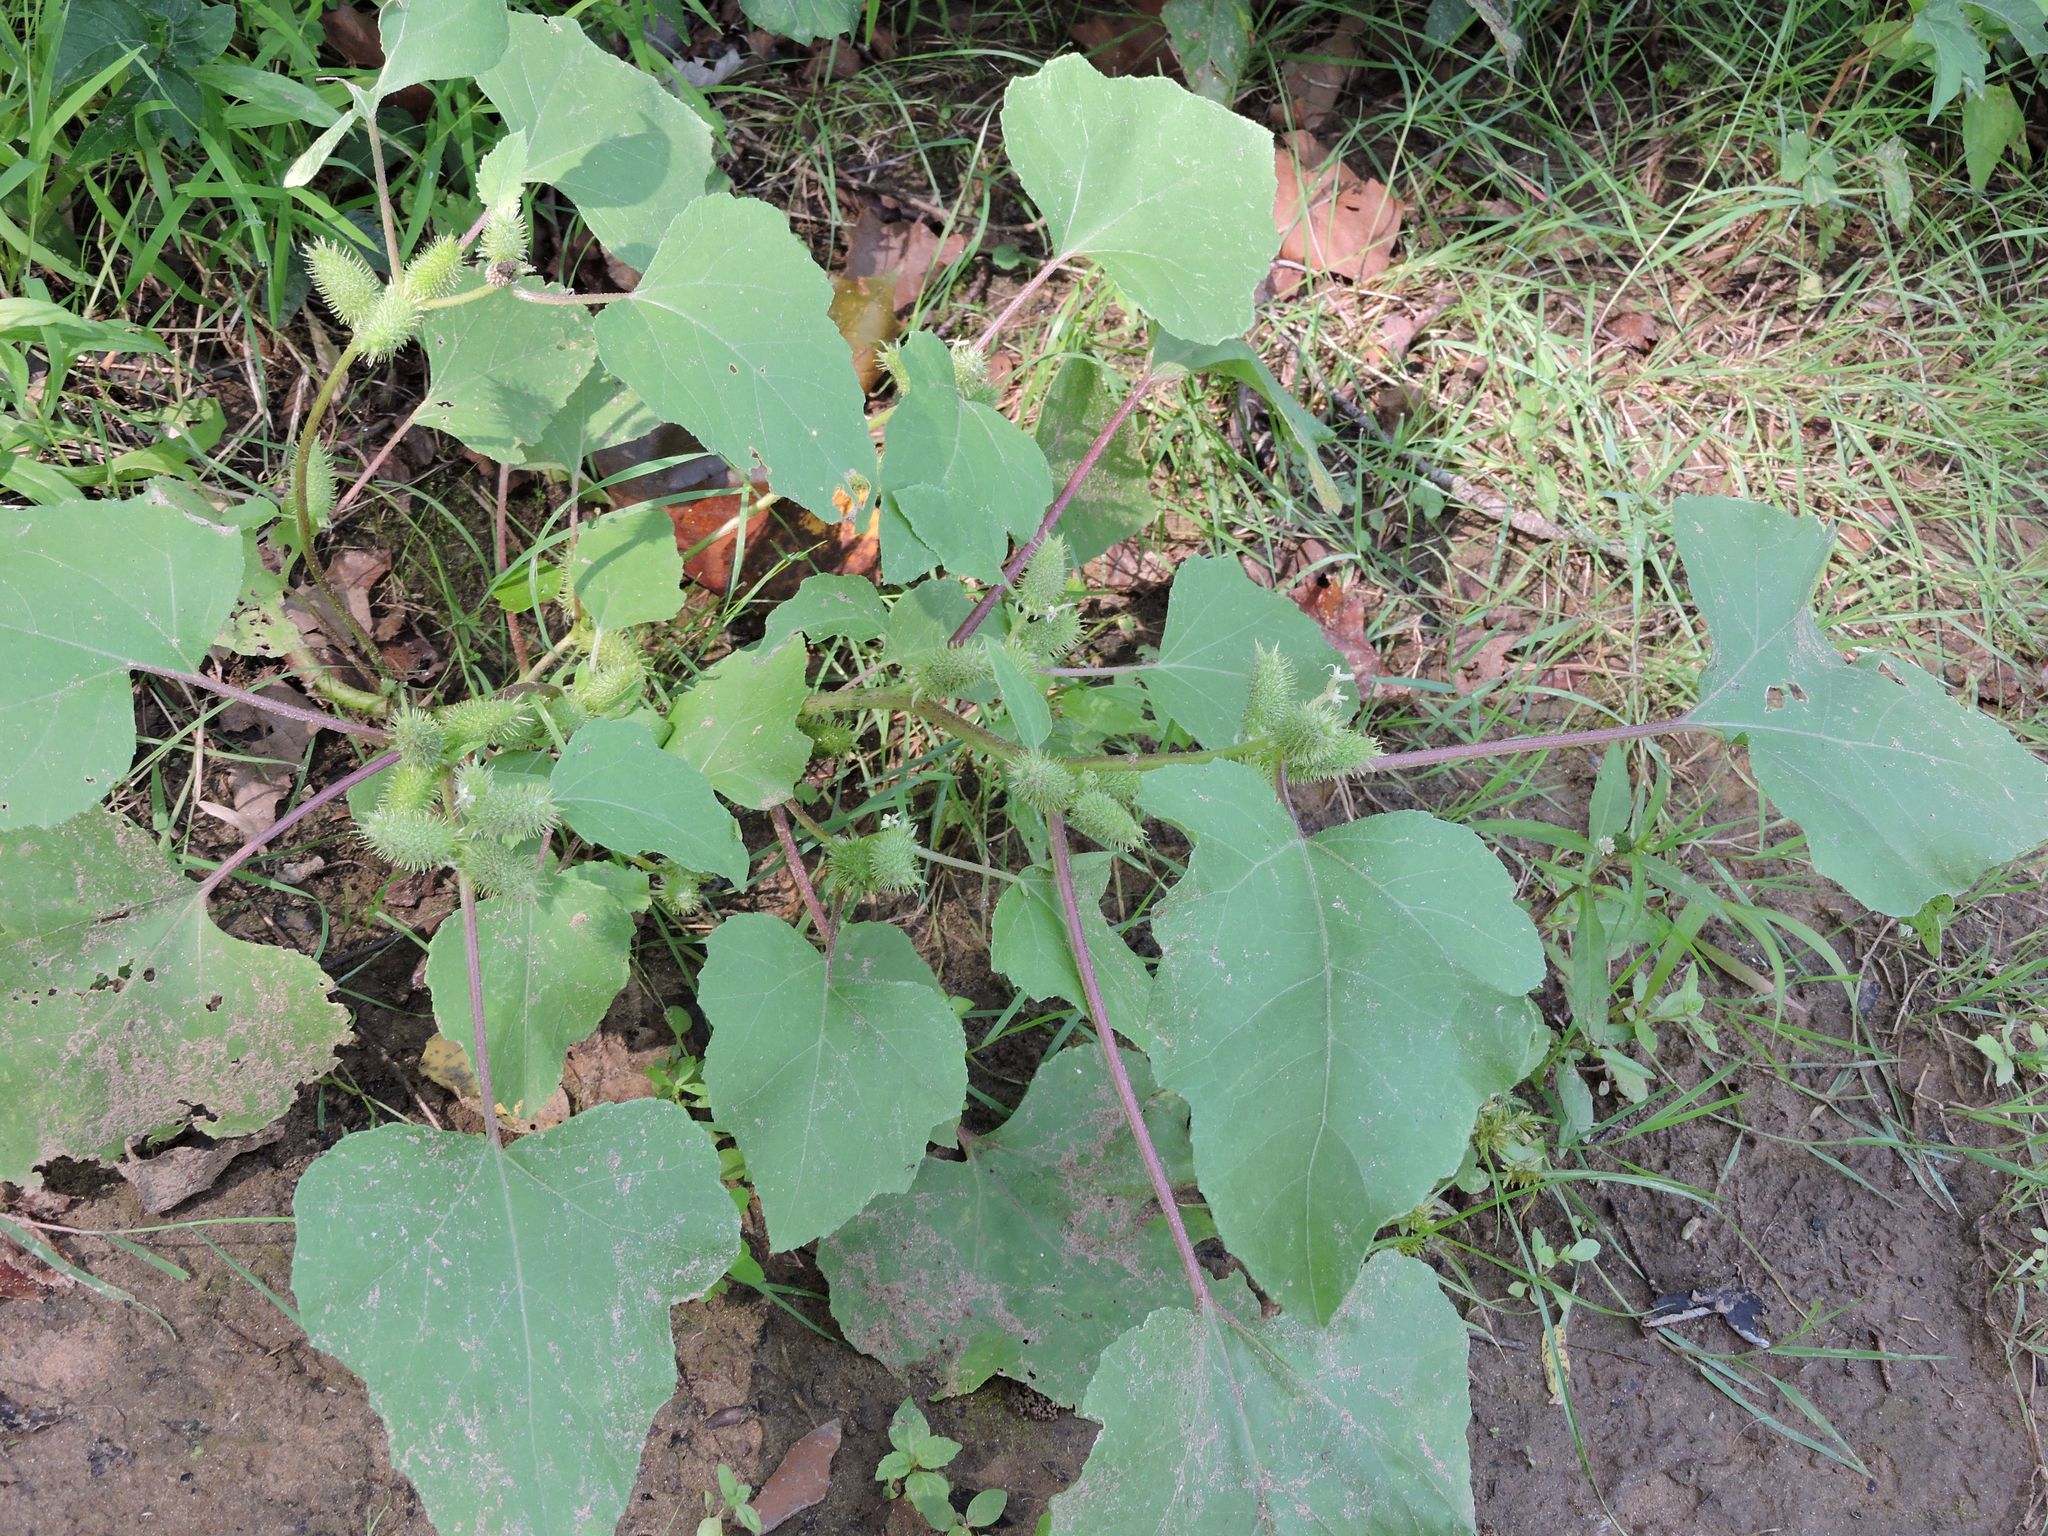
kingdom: Plantae
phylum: Tracheophyta
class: Magnoliopsida
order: Asterales
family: Asteraceae
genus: Xanthium
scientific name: Xanthium strumarium
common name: Rough cocklebur
